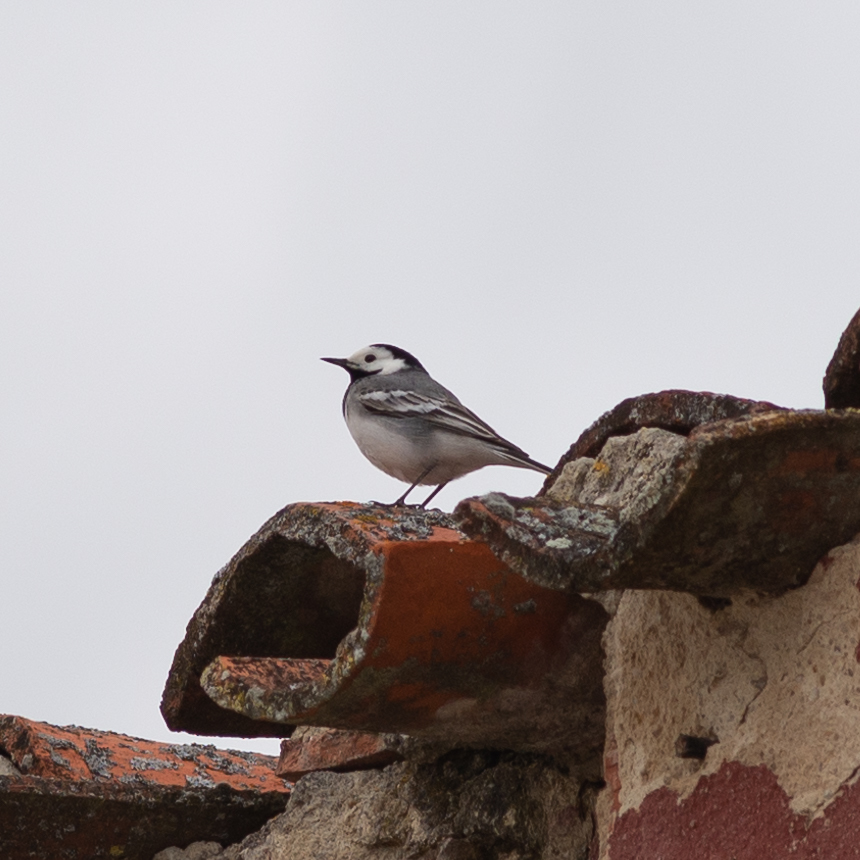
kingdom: Animalia
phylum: Chordata
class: Aves
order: Passeriformes
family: Motacillidae
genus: Motacilla
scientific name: Motacilla alba
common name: White wagtail
